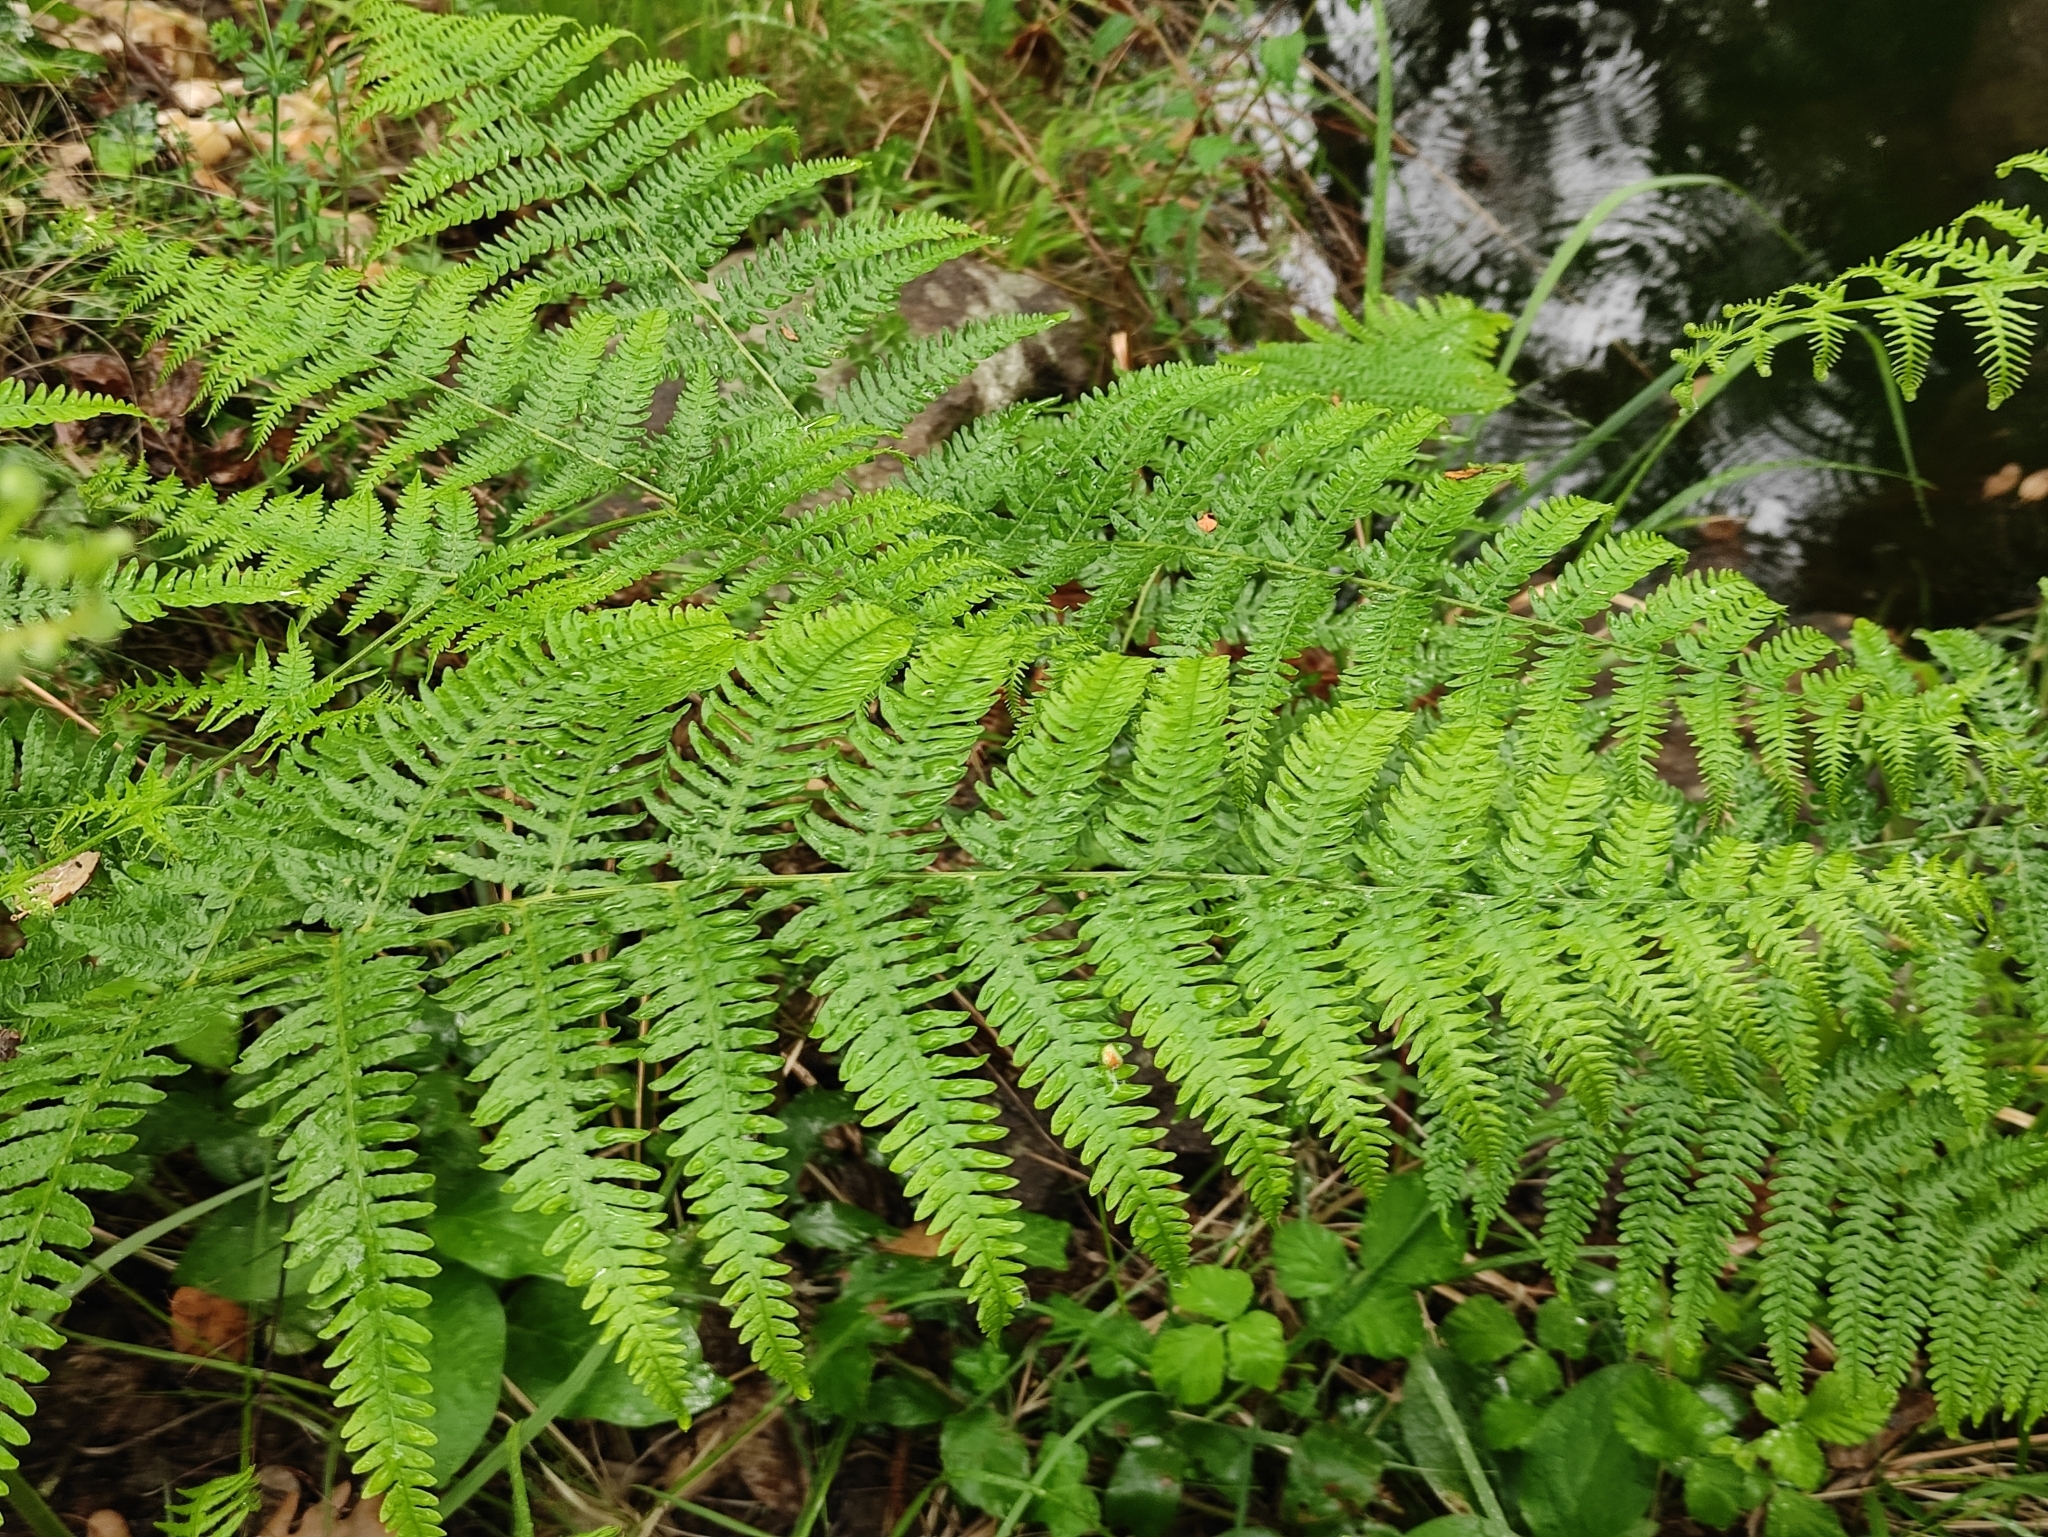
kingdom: Plantae
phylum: Tracheophyta
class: Polypodiopsida
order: Polypodiales
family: Dennstaedtiaceae
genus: Pteridium
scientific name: Pteridium aquilinum
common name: Bracken
